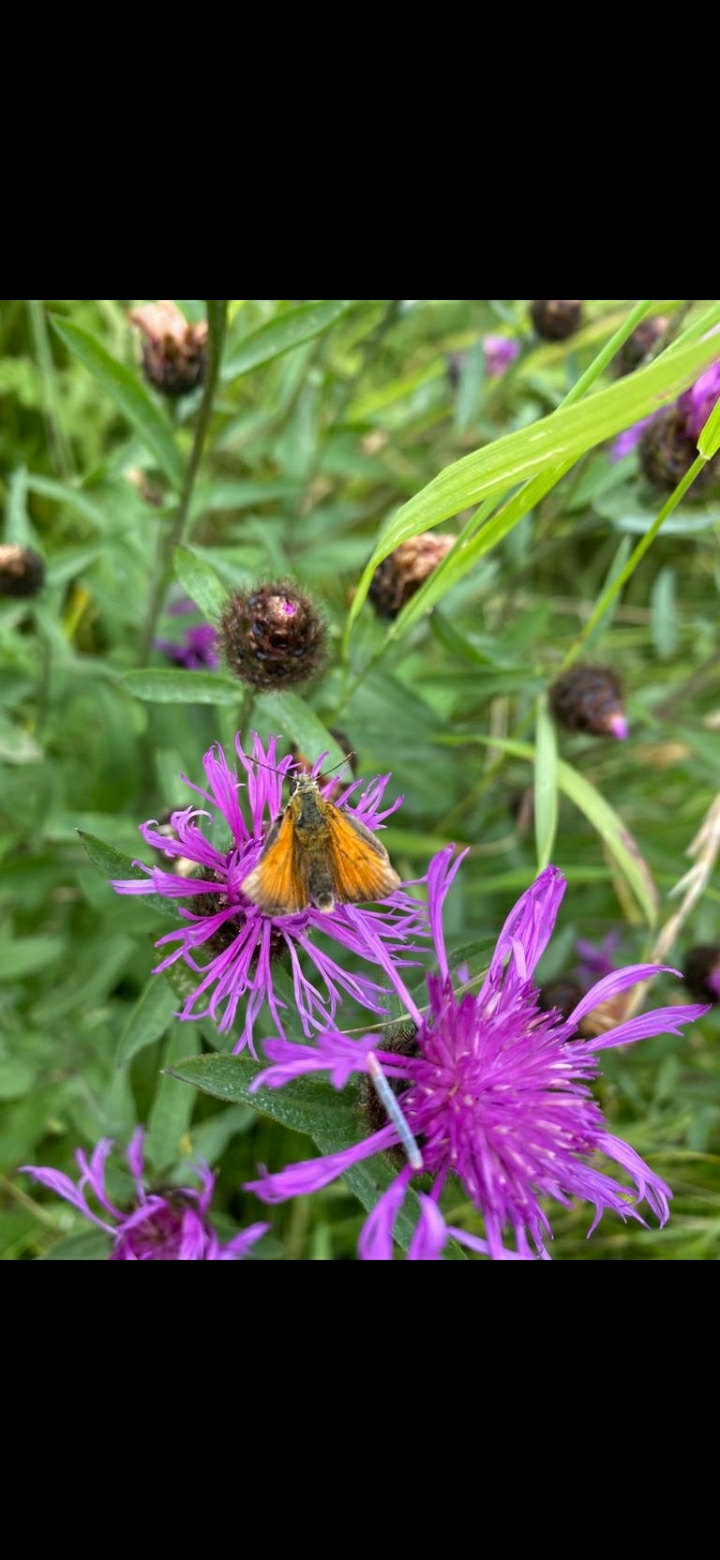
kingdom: Animalia
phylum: Arthropoda
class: Insecta
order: Lepidoptera
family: Hesperiidae
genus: Thymelicus
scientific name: Thymelicus sylvestris
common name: Small skipper
